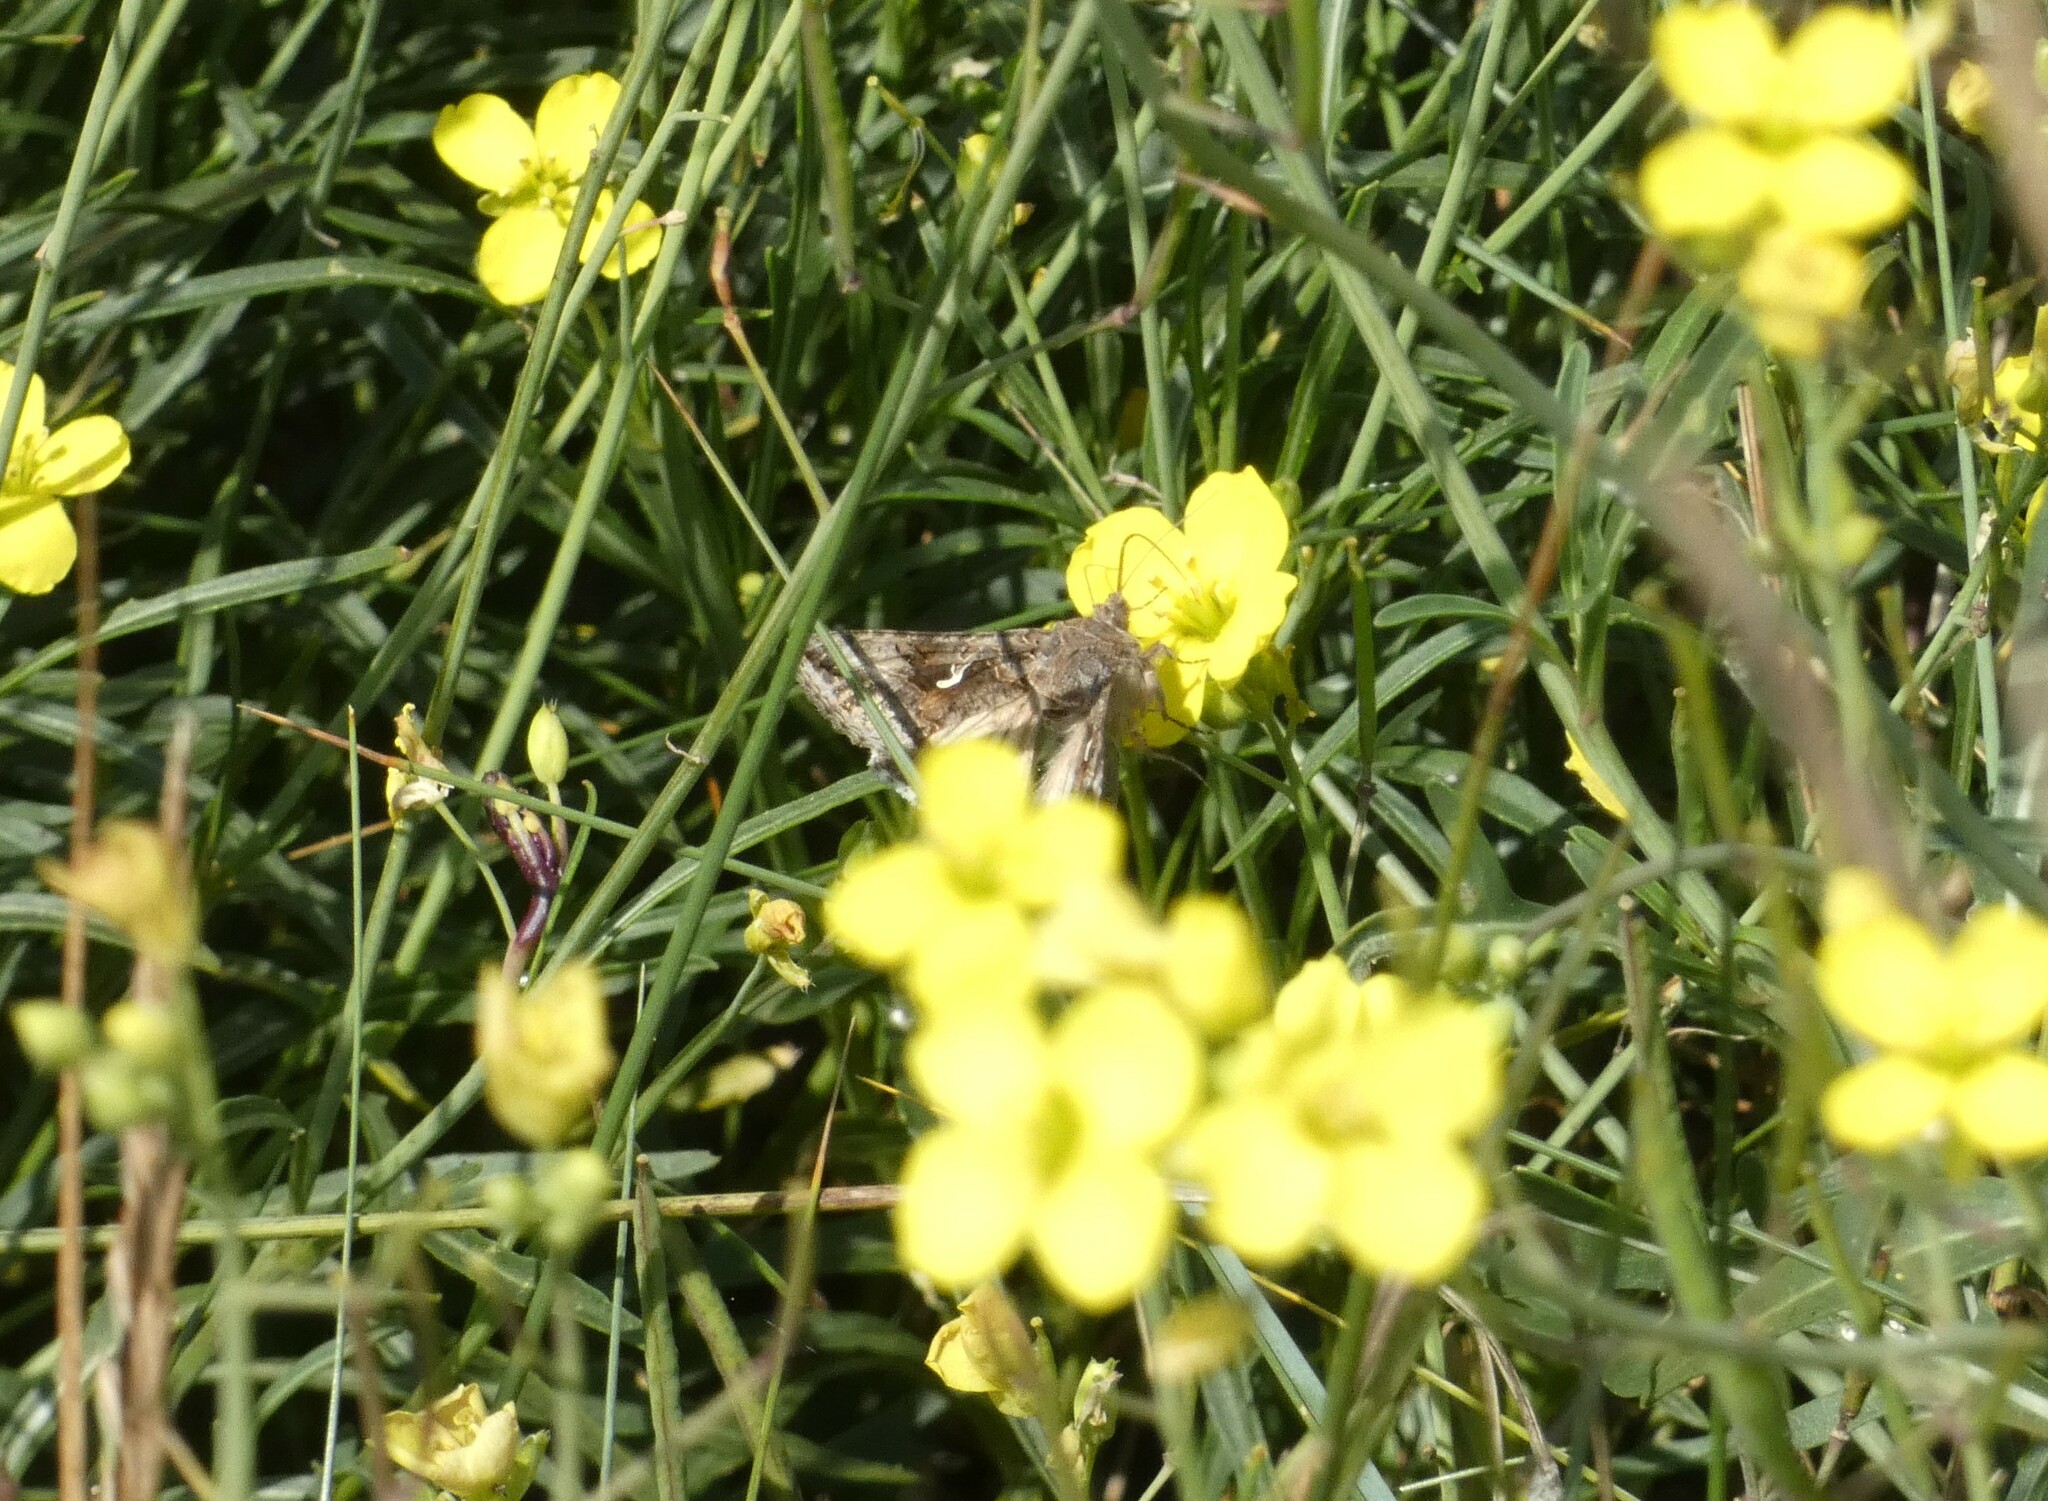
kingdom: Animalia
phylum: Arthropoda
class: Insecta
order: Lepidoptera
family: Noctuidae
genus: Autographa
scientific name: Autographa gamma
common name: Silver y
